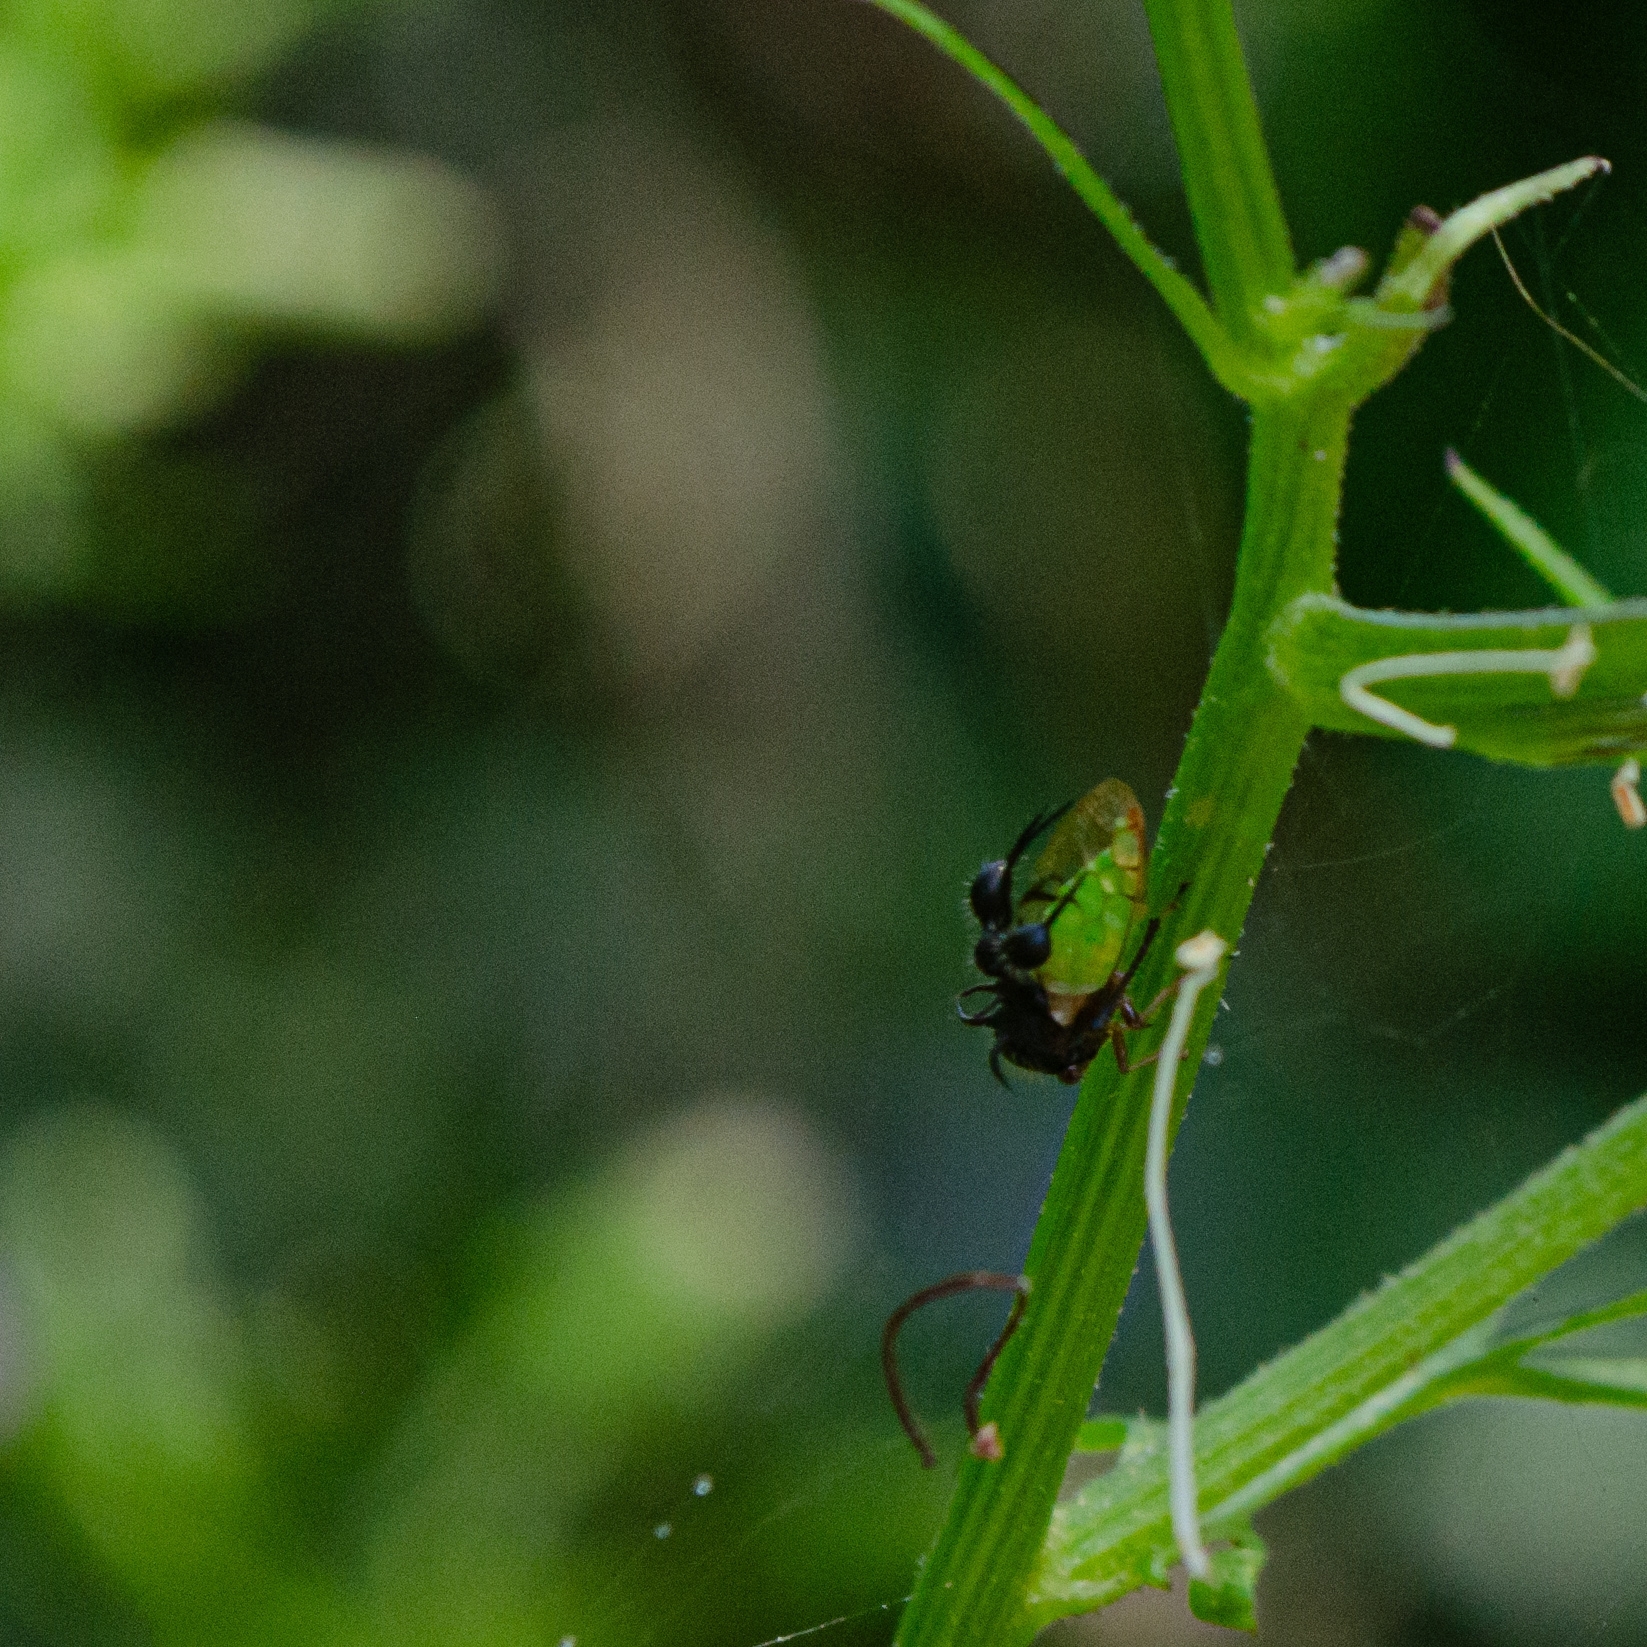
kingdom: Animalia
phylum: Arthropoda
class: Insecta
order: Hemiptera
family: Membracidae
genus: Cyphonia
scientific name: Cyphonia clavata
